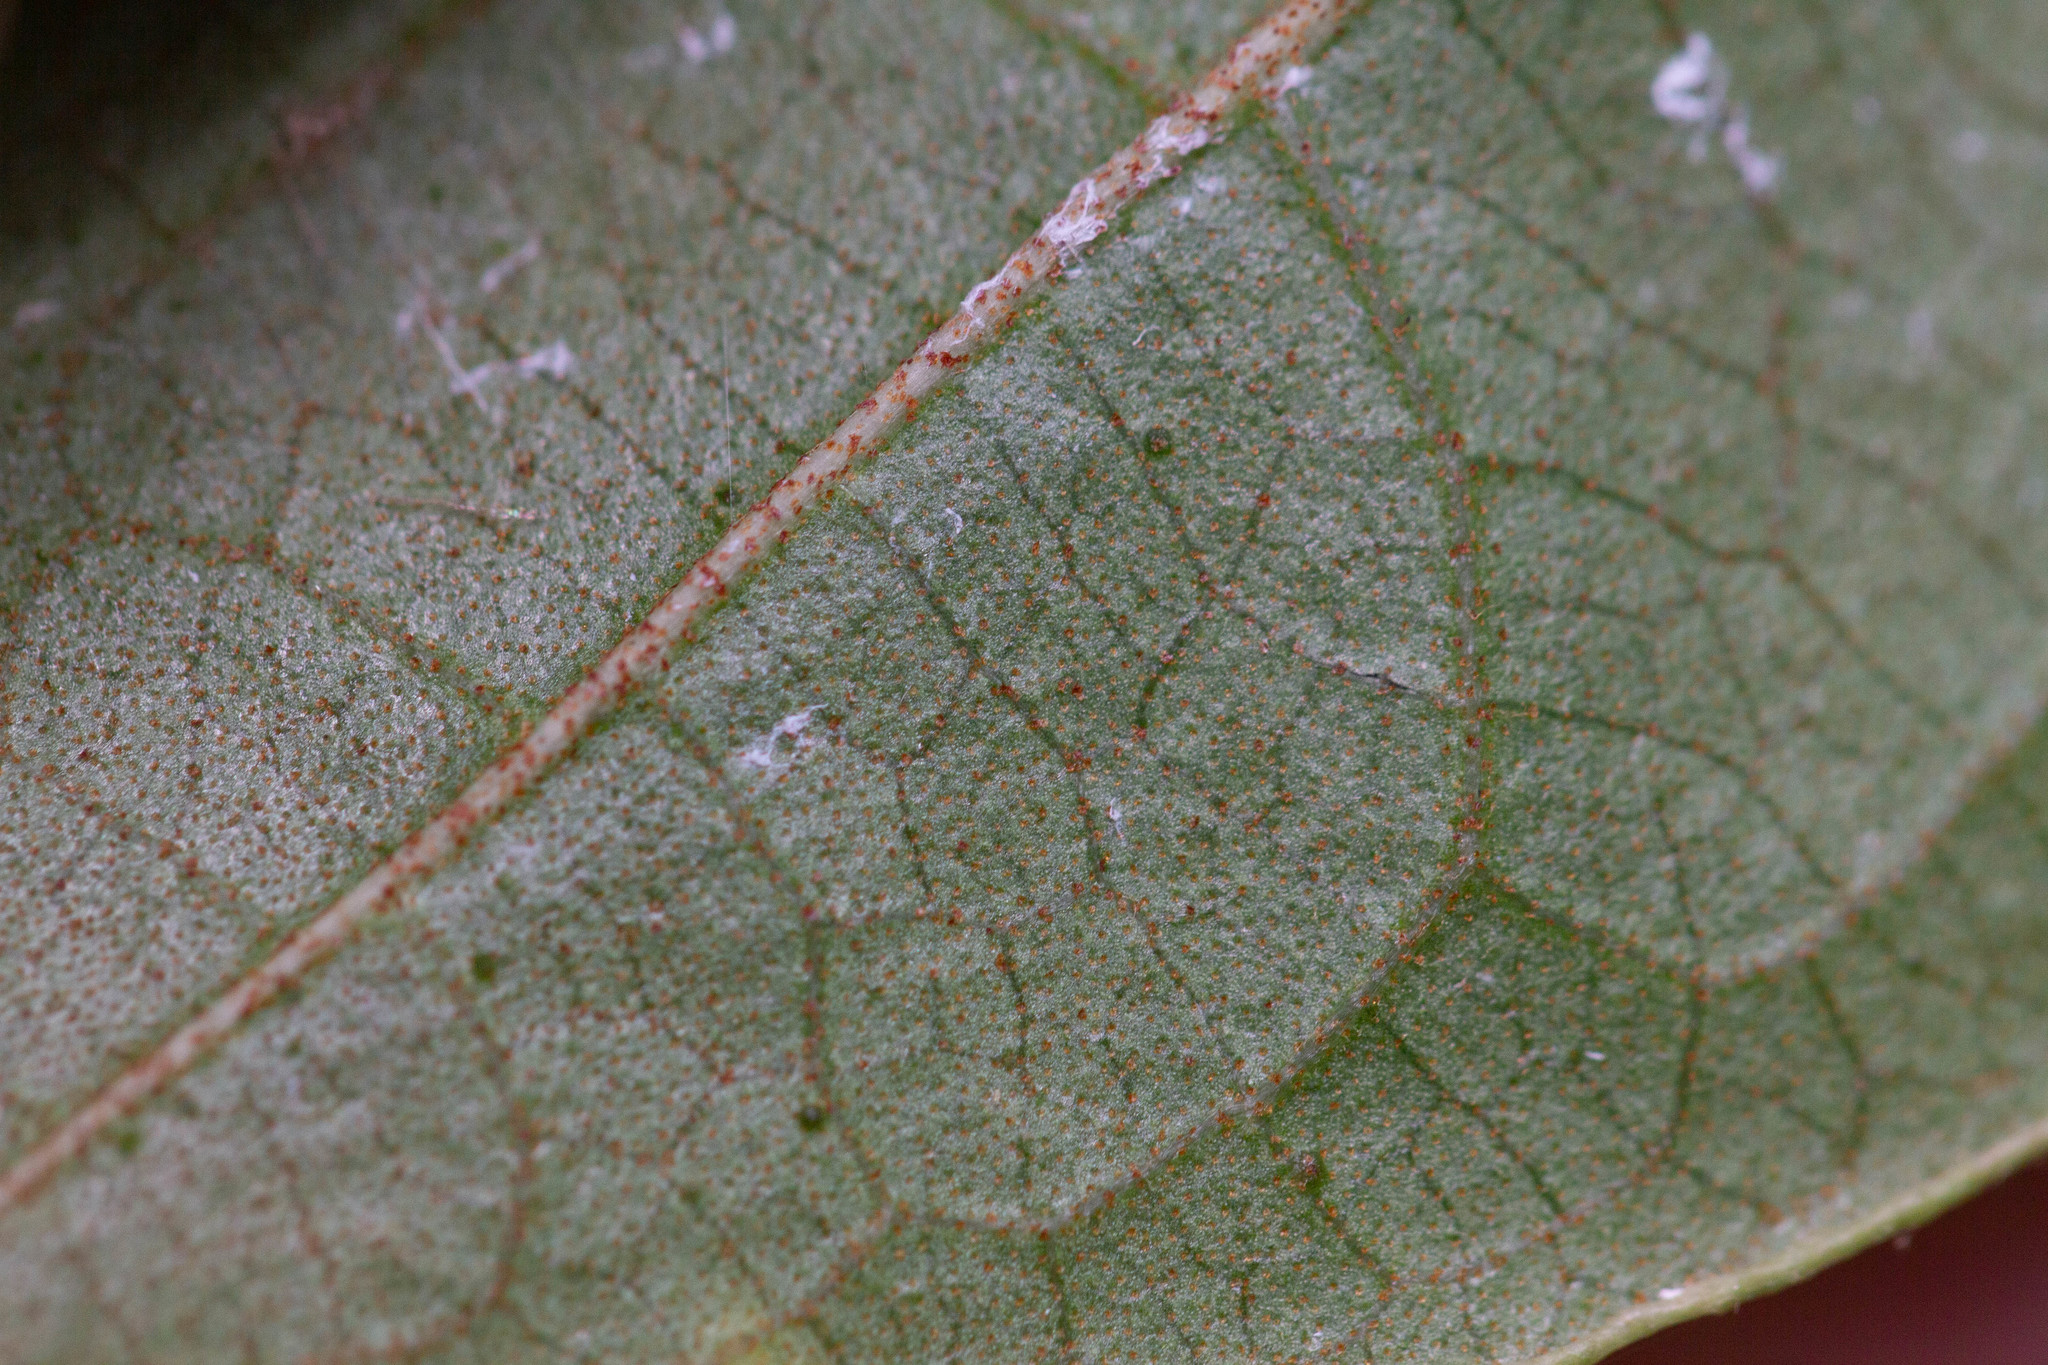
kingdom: Plantae
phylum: Tracheophyta
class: Magnoliopsida
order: Dipsacales
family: Viburnaceae
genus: Viburnum
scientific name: Viburnum nudum
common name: Possum haw
